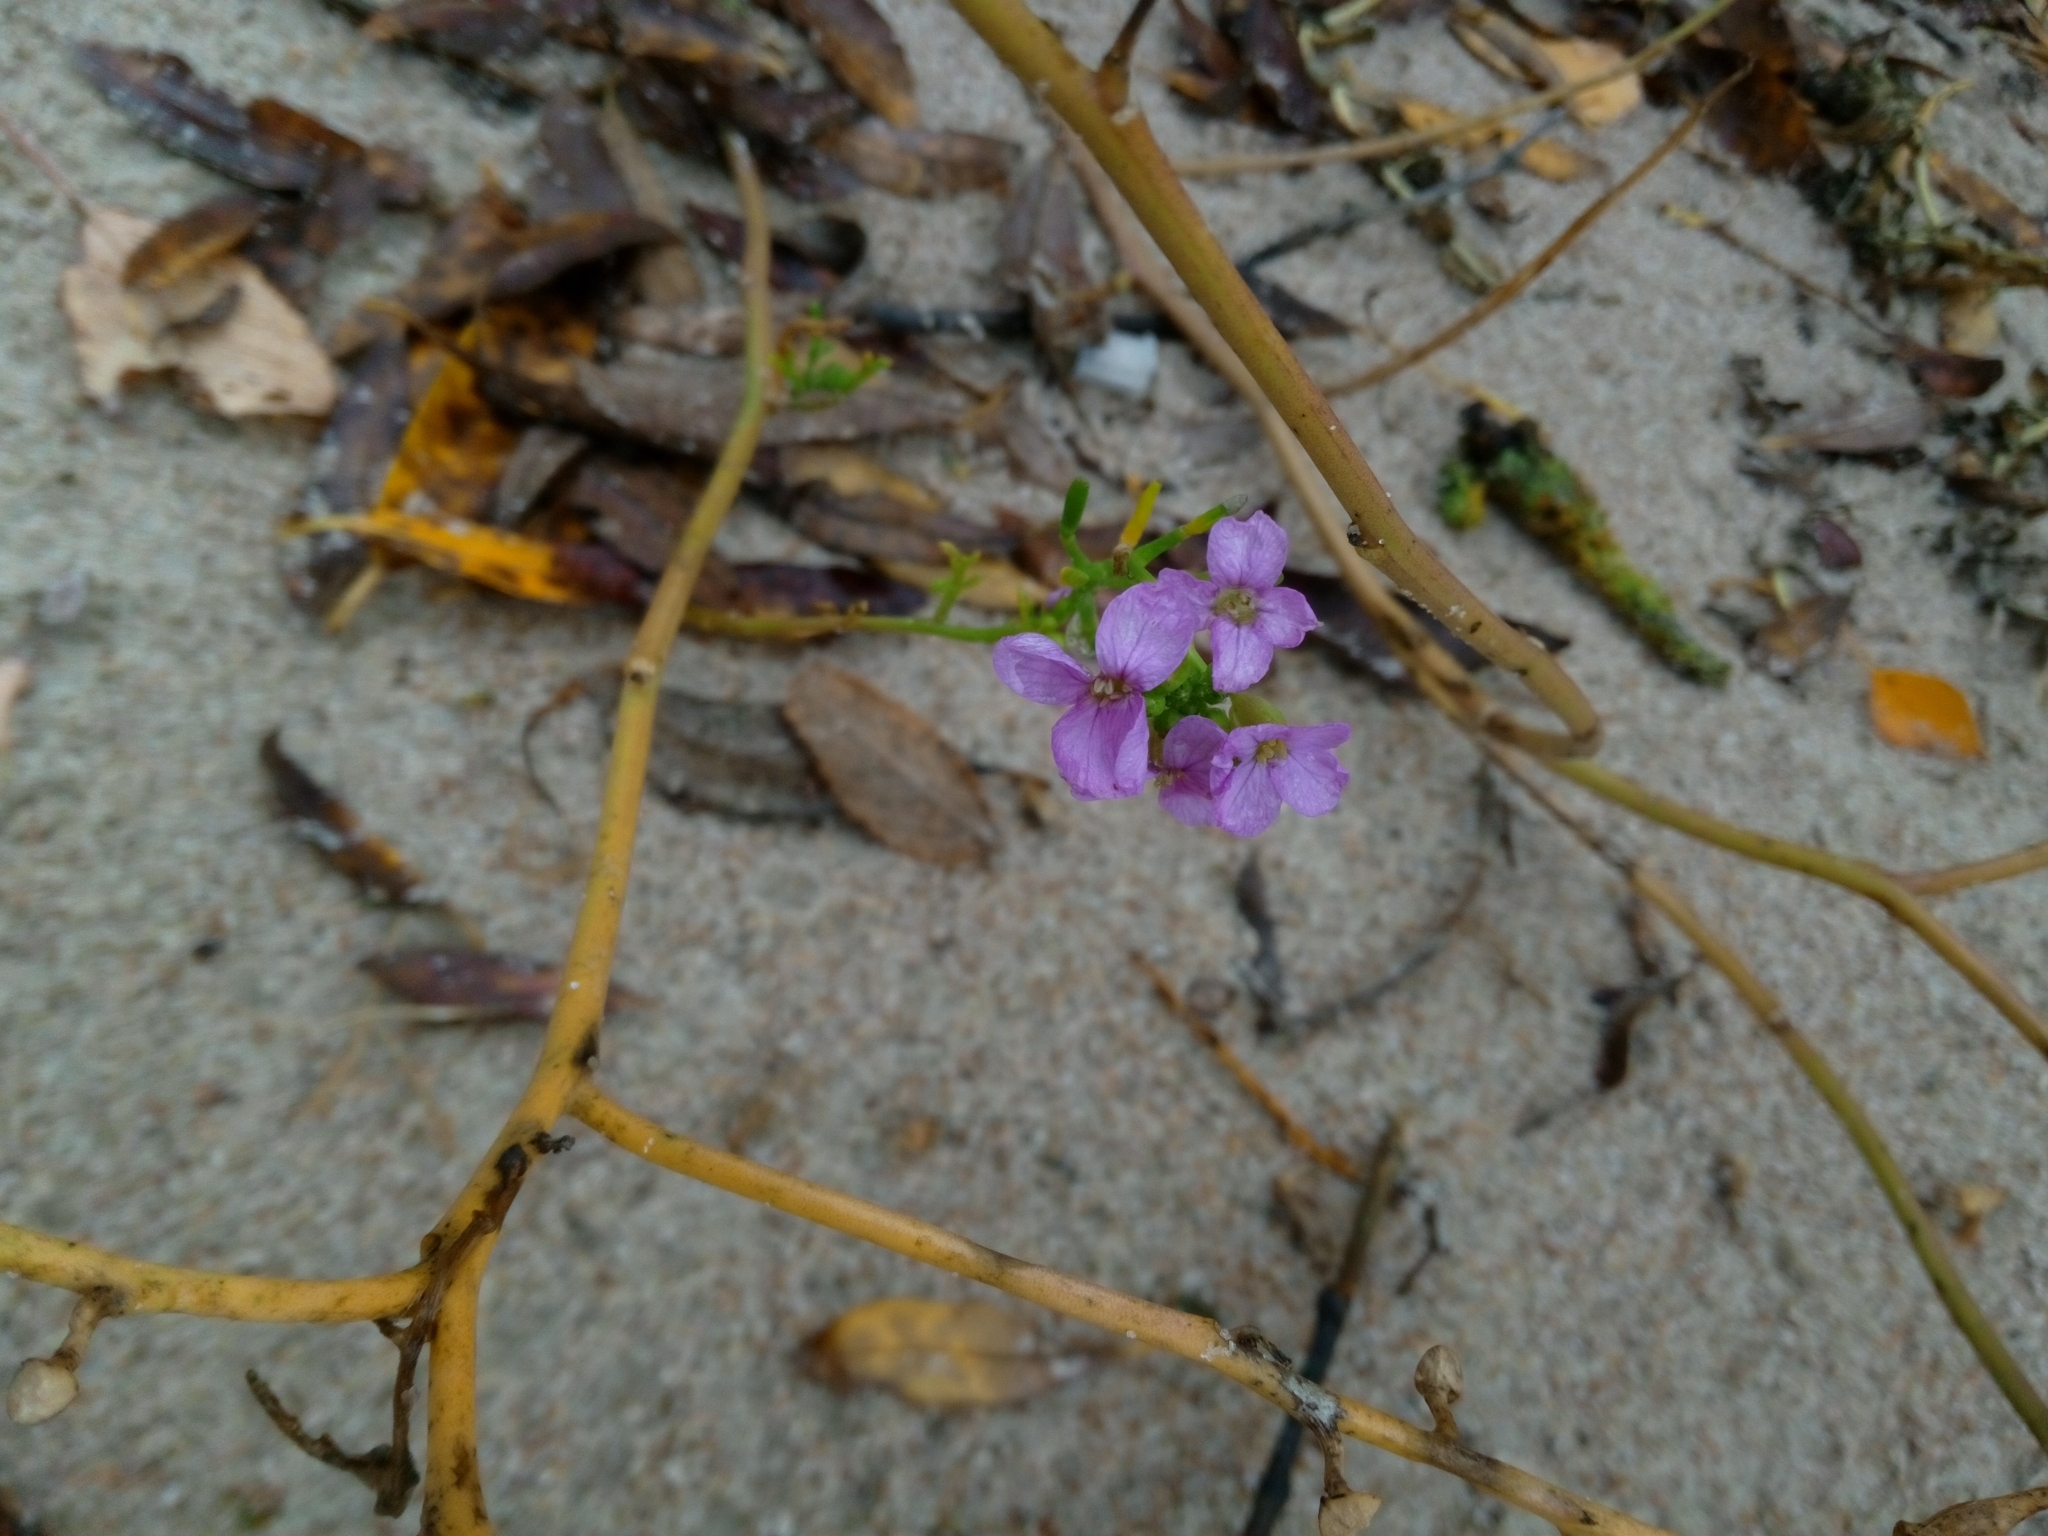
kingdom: Plantae
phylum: Tracheophyta
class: Magnoliopsida
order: Brassicales
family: Brassicaceae
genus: Cakile
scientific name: Cakile maritima
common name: Sea rocket
